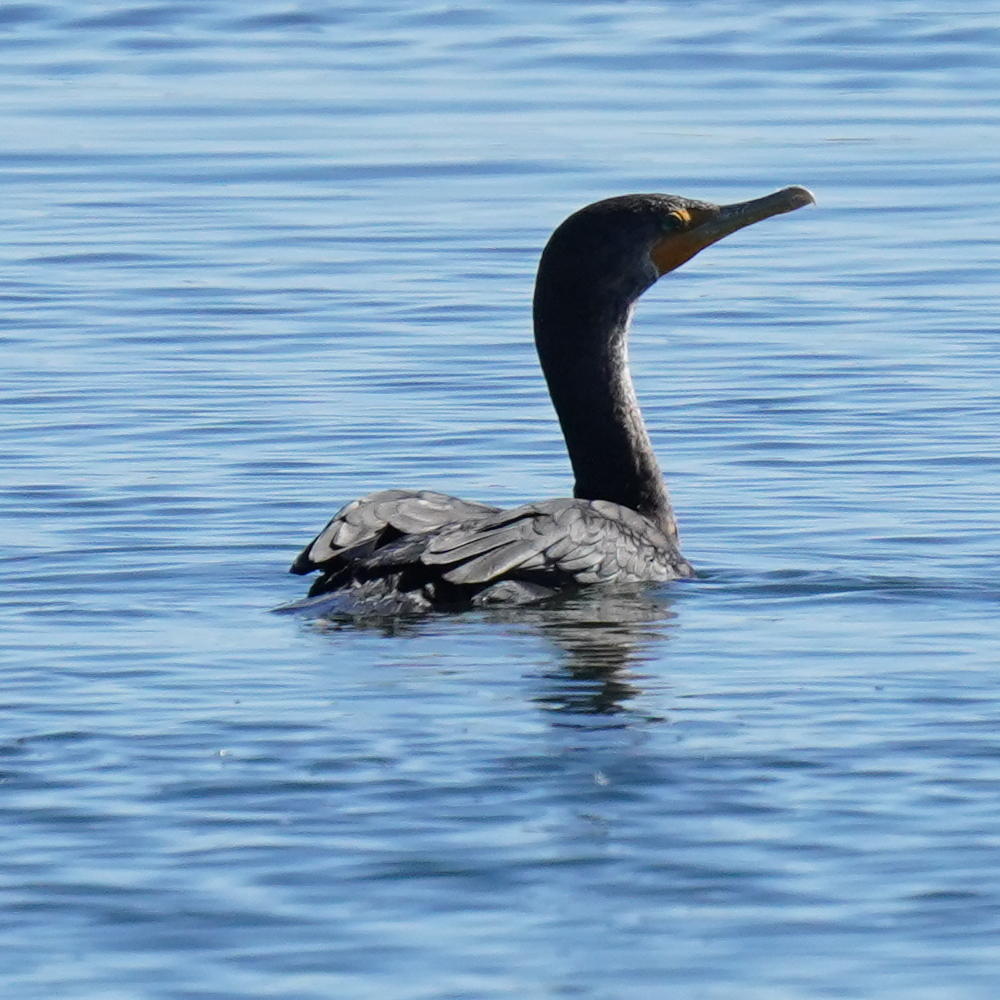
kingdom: Animalia
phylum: Chordata
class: Aves
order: Suliformes
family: Phalacrocoracidae
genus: Phalacrocorax
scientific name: Phalacrocorax auritus
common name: Double-crested cormorant
